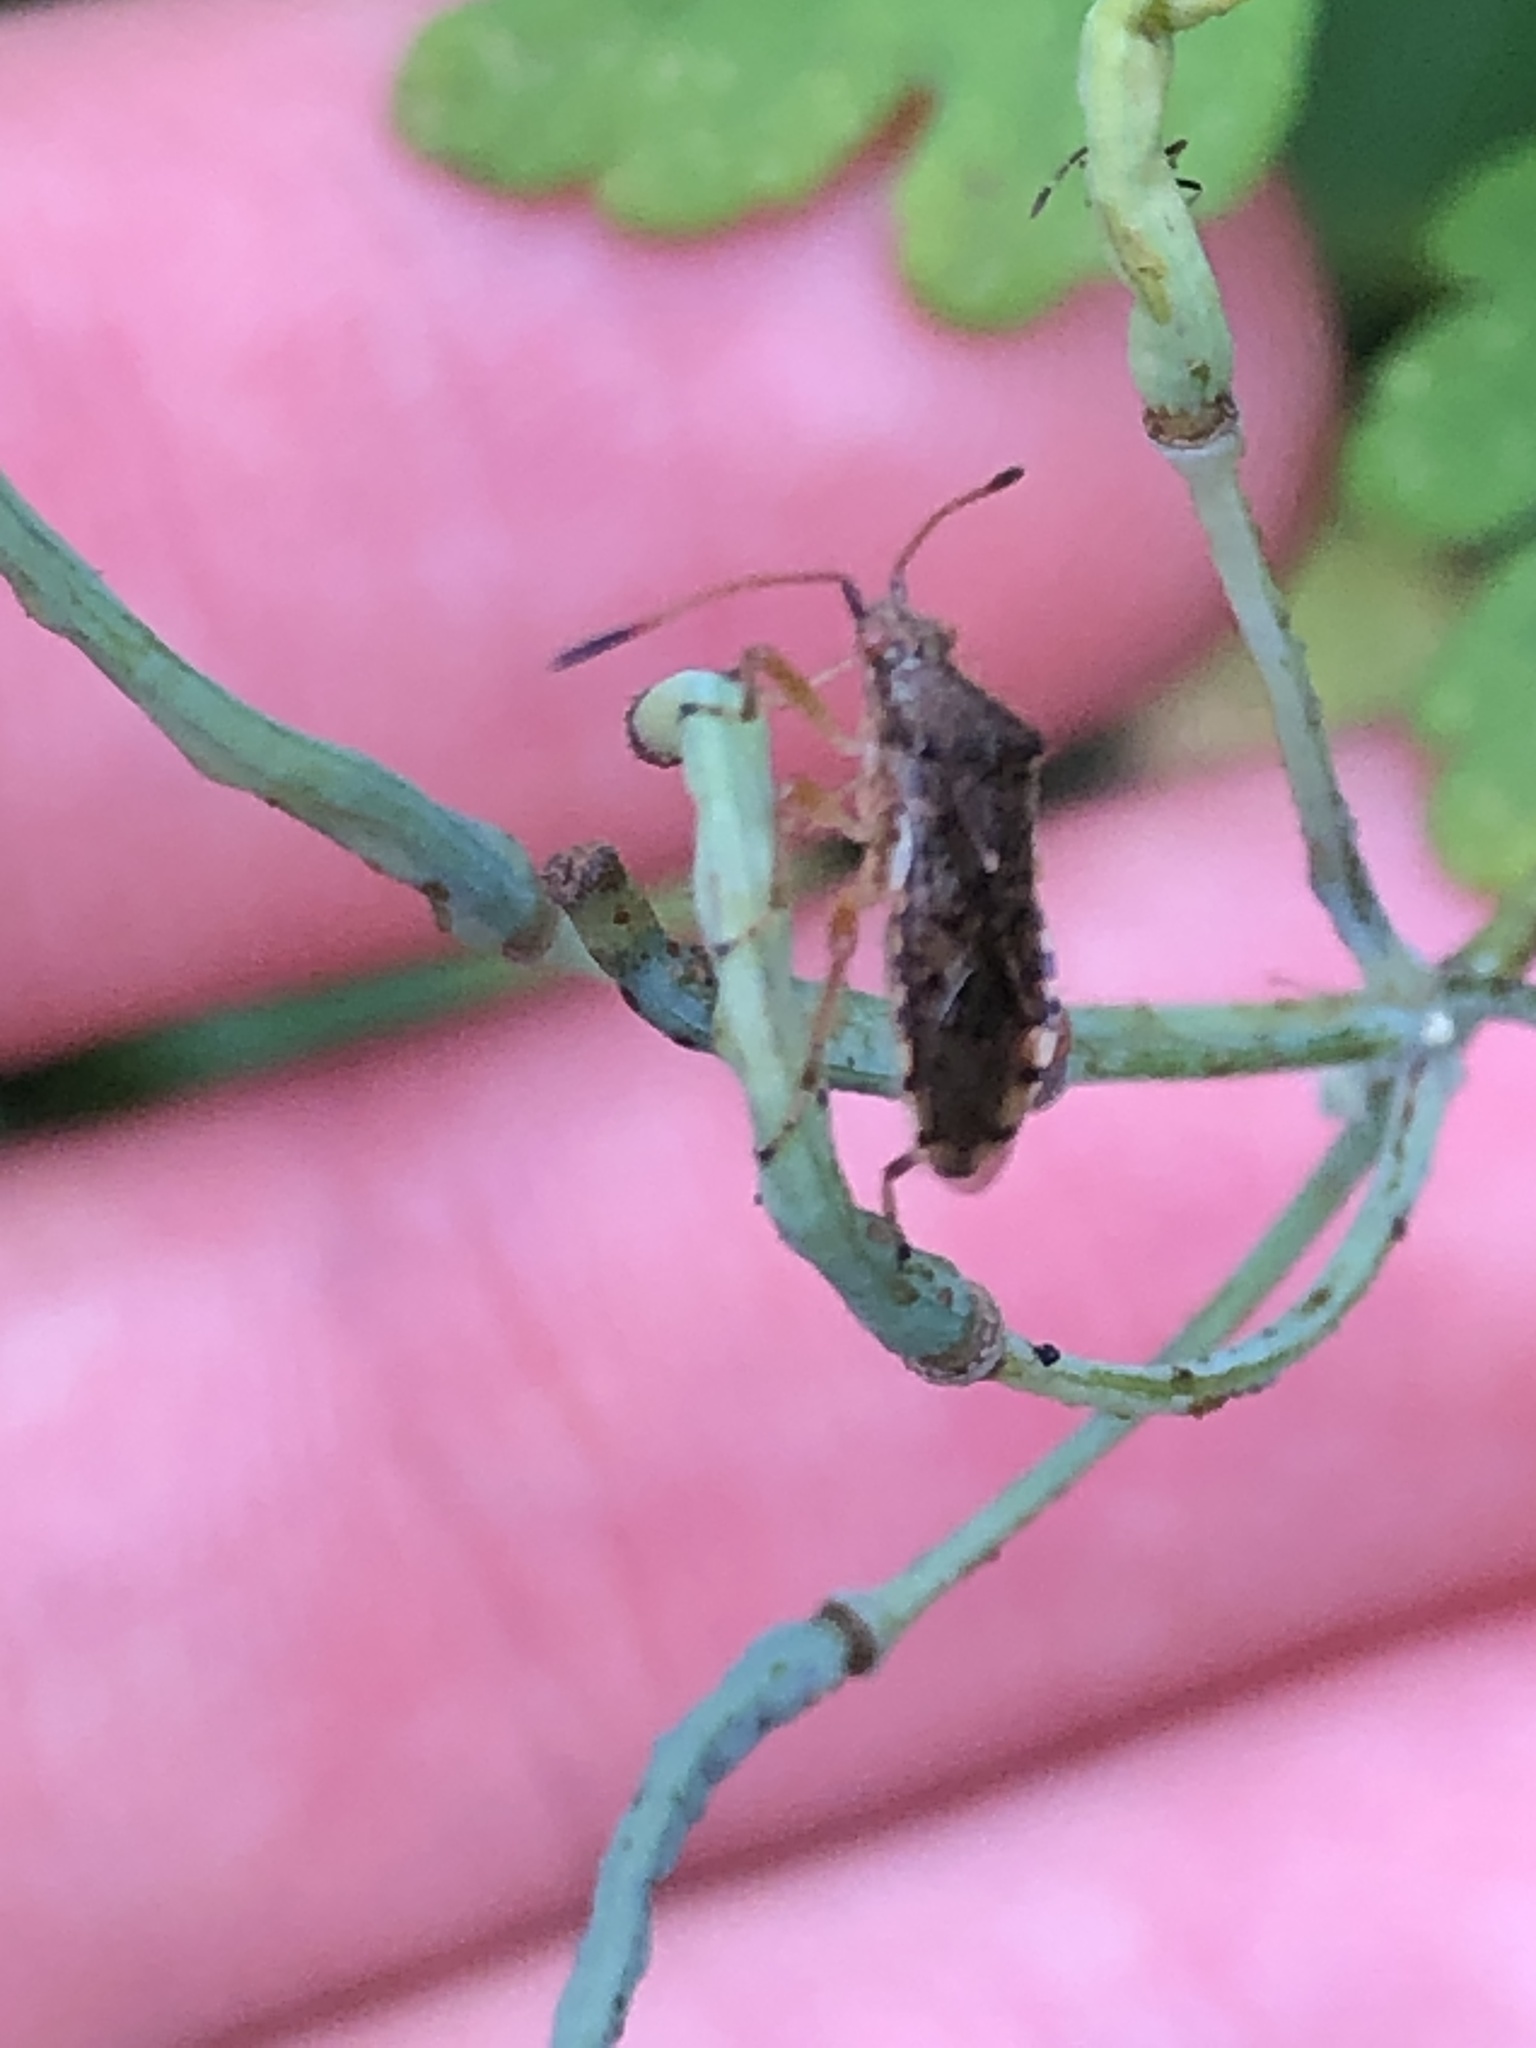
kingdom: Animalia
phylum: Arthropoda
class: Insecta
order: Hemiptera
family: Rhopalidae
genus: Rhopalus
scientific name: Rhopalus sapporensis
